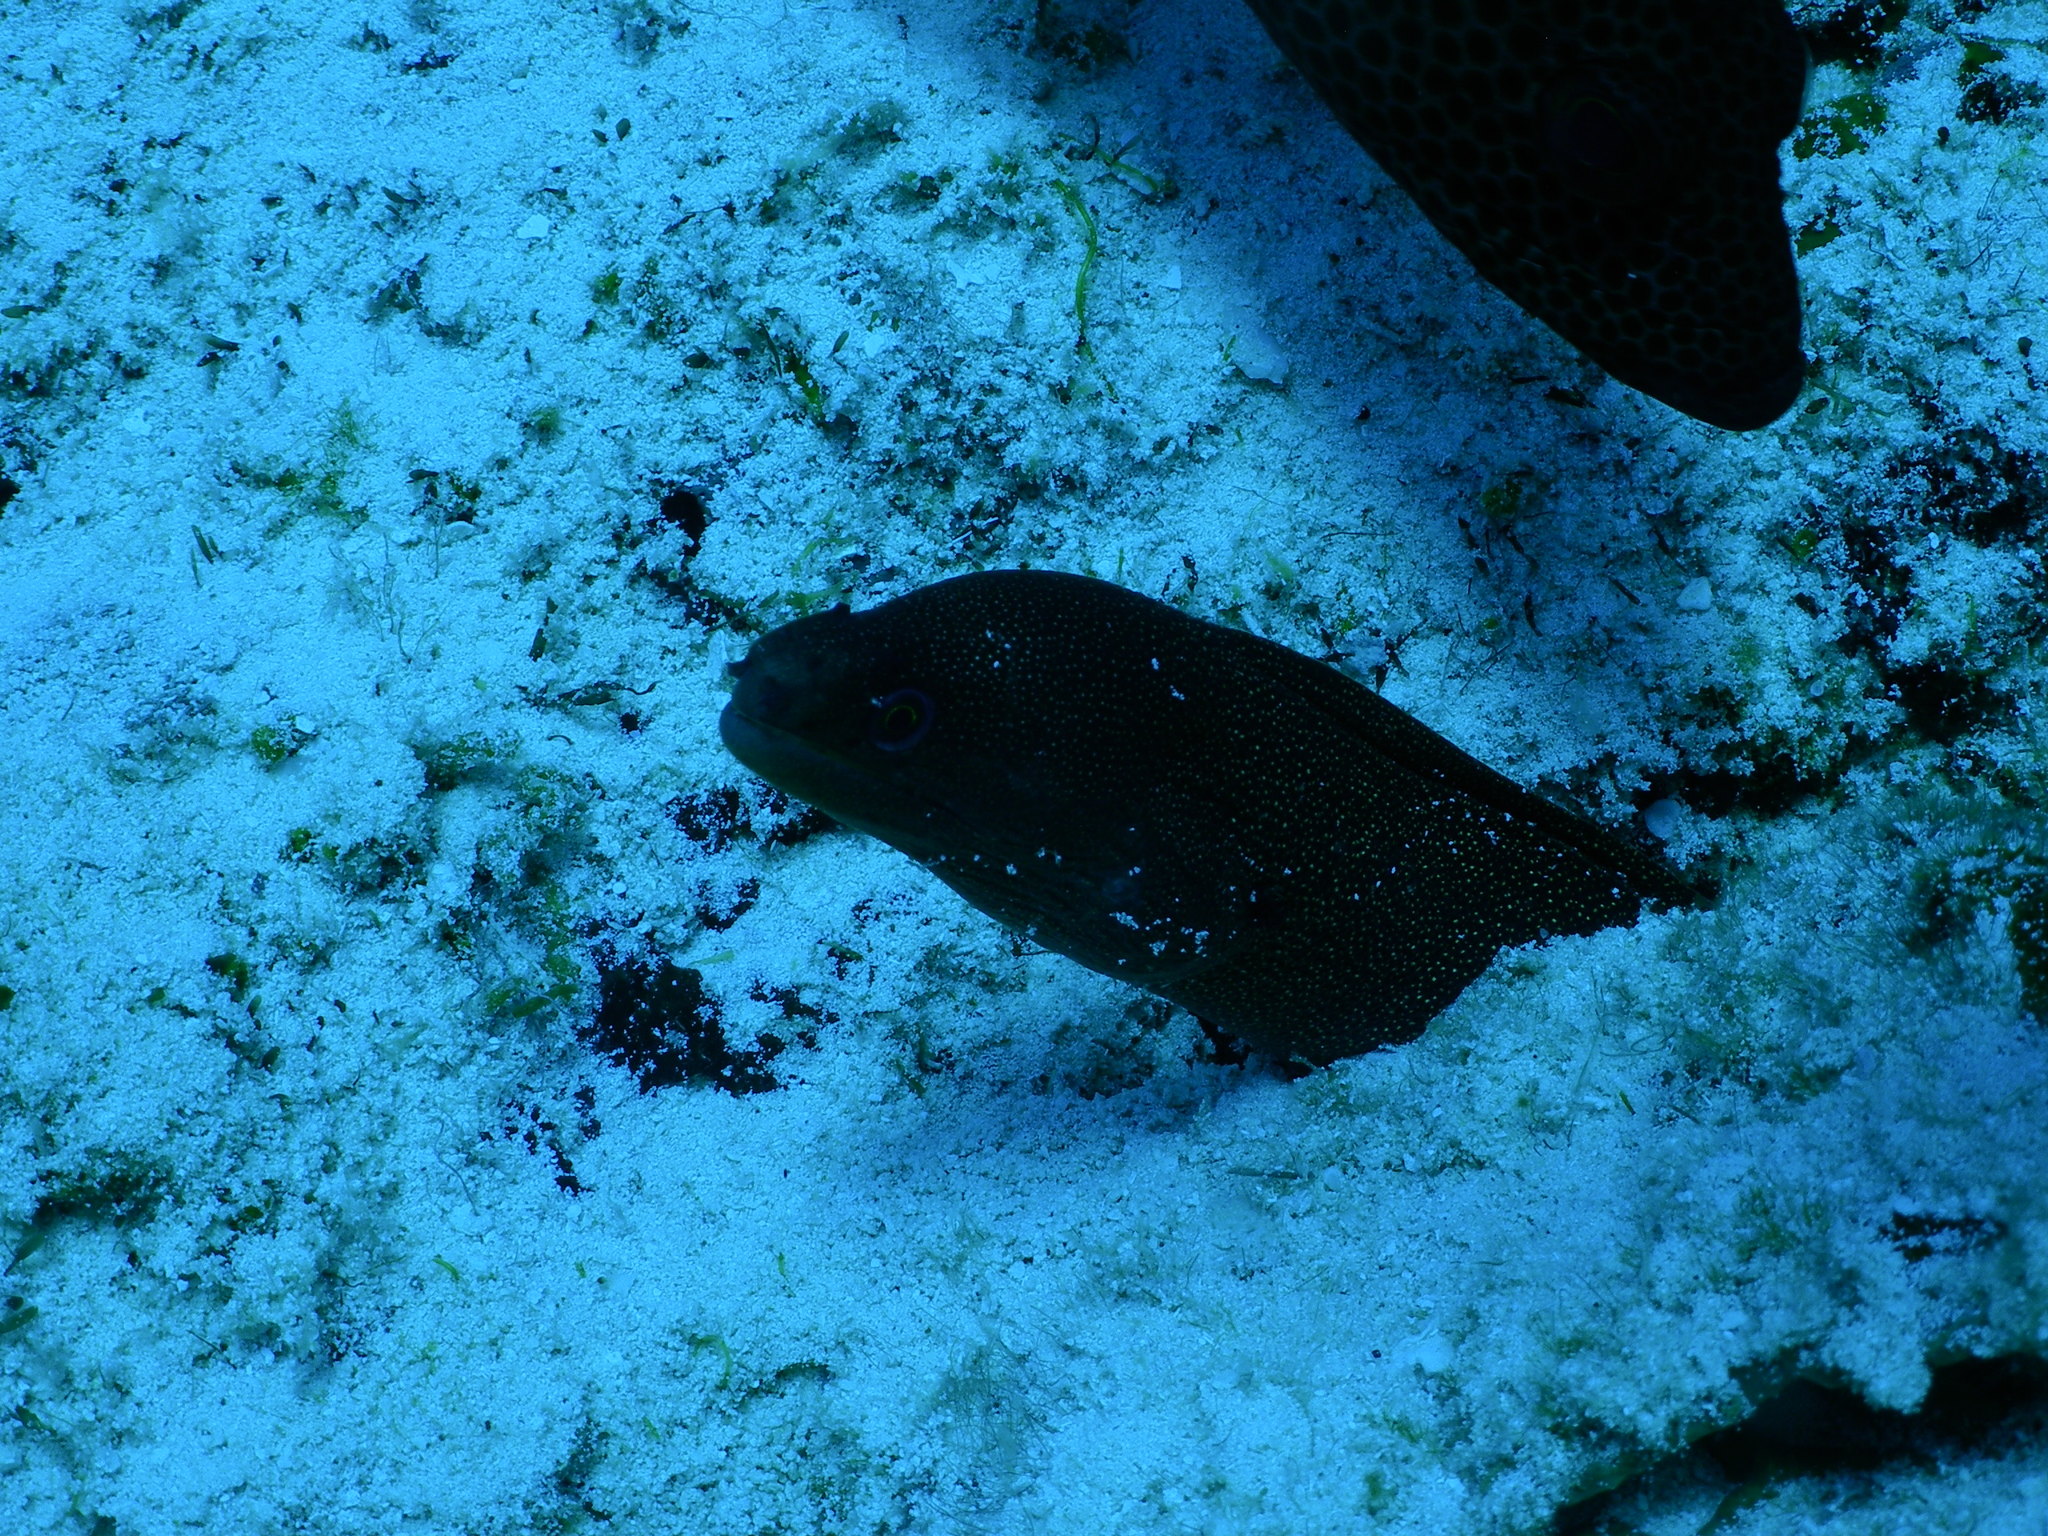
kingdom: Animalia
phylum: Chordata
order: Anguilliformes
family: Muraenidae
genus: Gymnothorax
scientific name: Gymnothorax miliaris
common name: Goldentail moray
